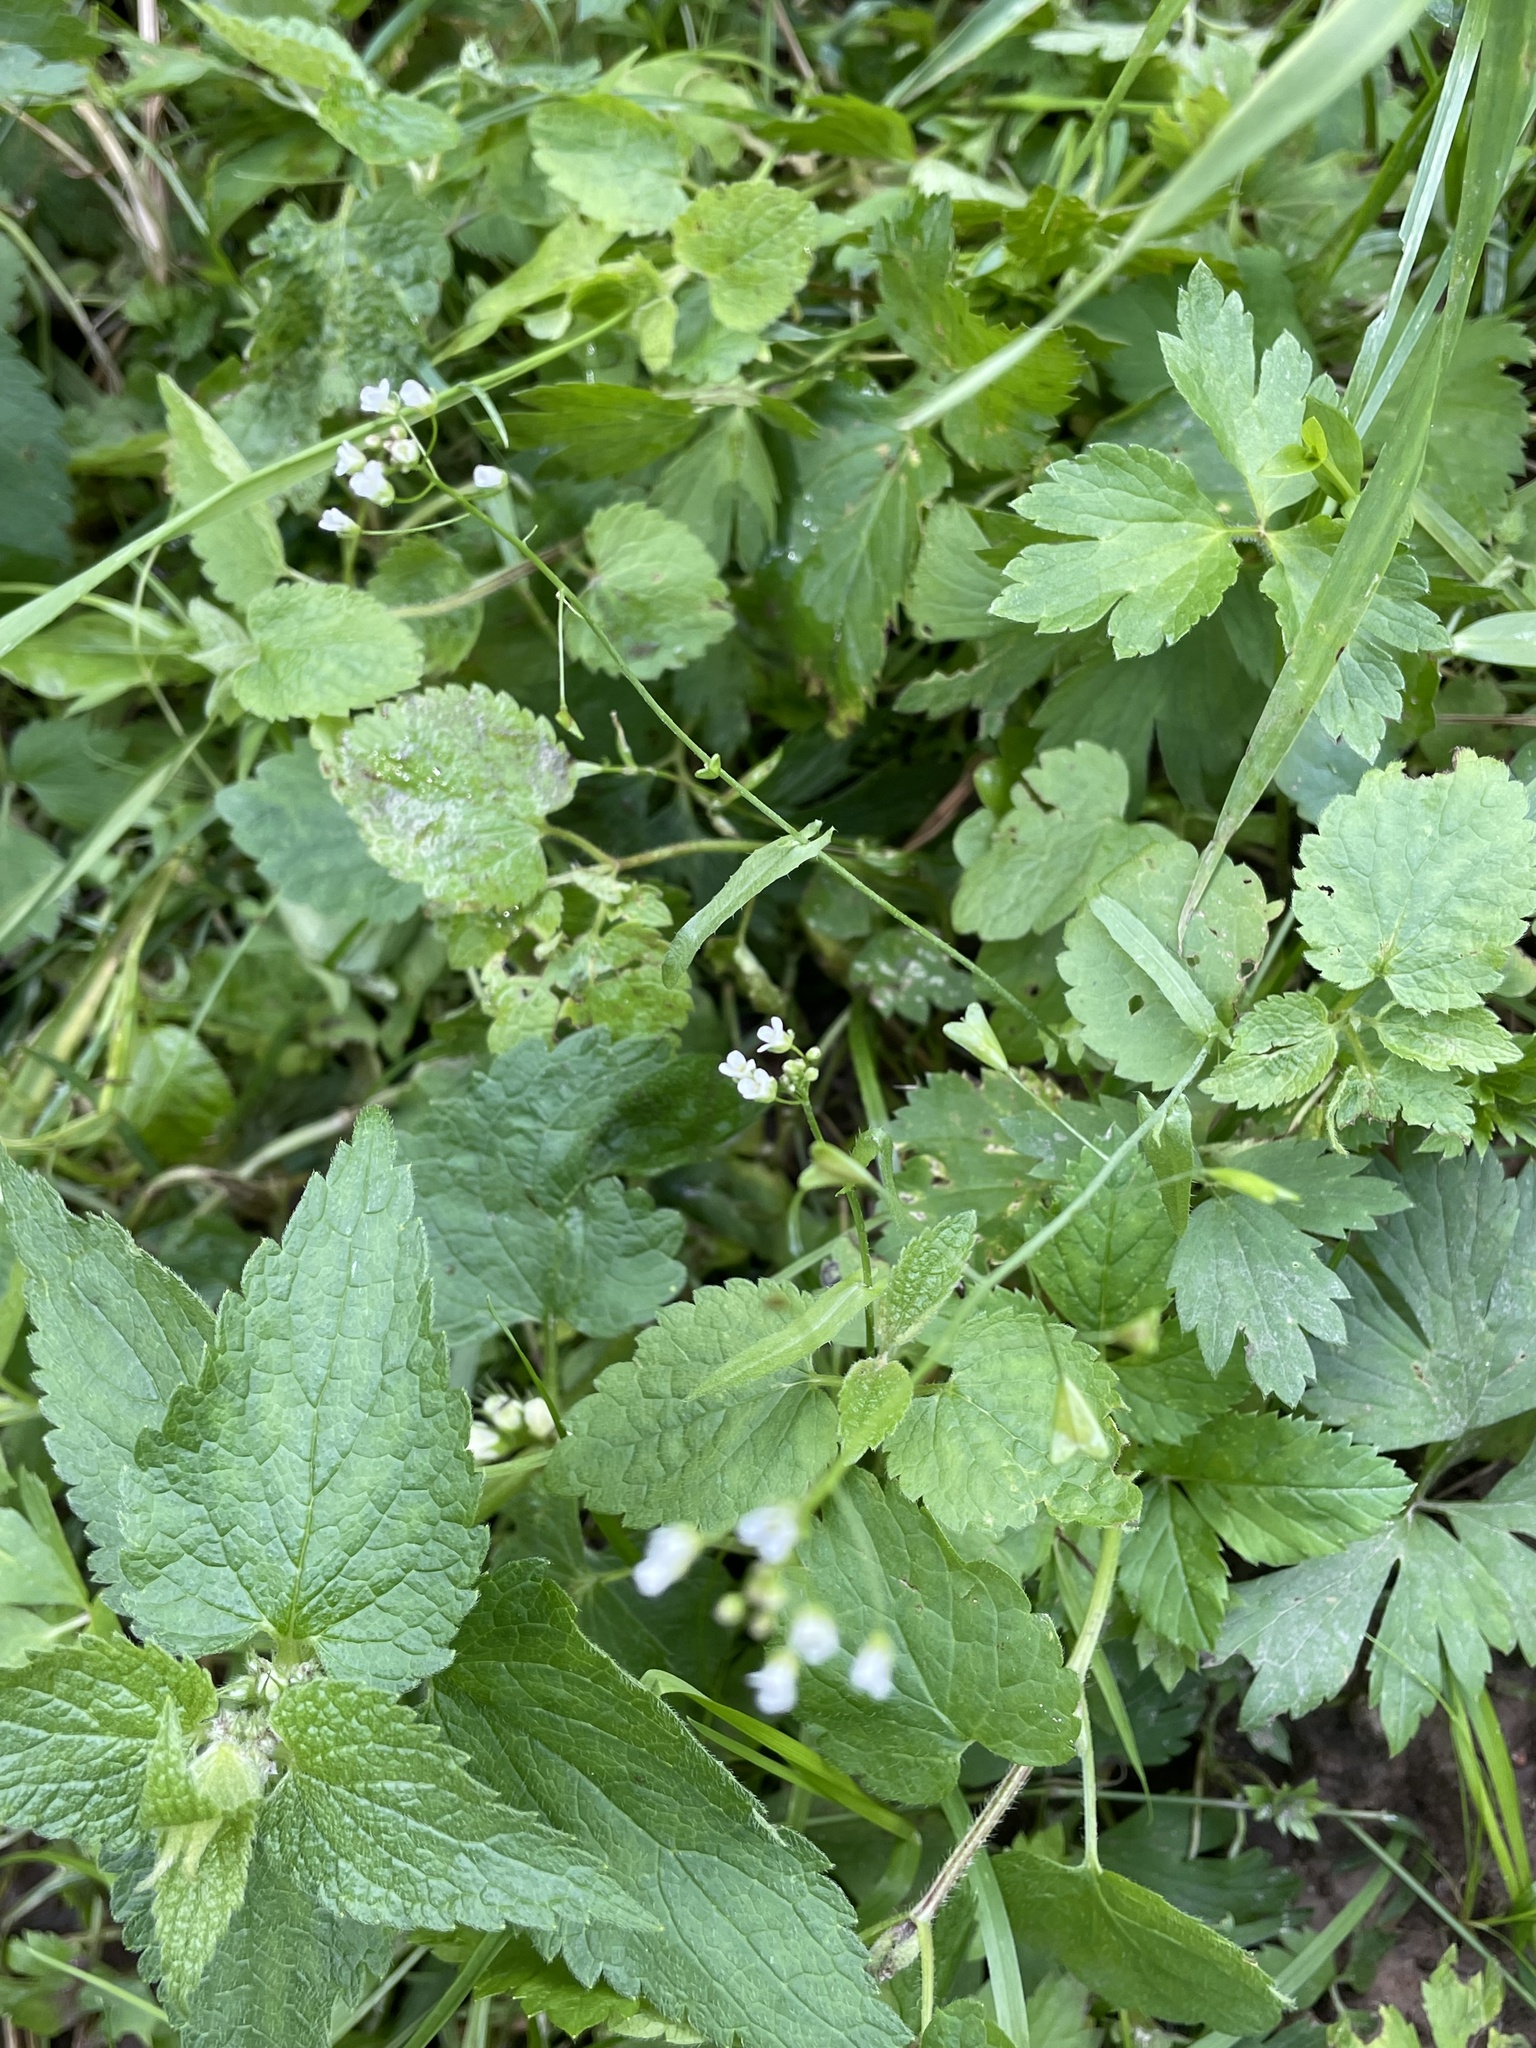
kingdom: Plantae
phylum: Tracheophyta
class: Magnoliopsida
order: Brassicales
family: Brassicaceae
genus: Capsella
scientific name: Capsella bursa-pastoris
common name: Shepherd's purse
